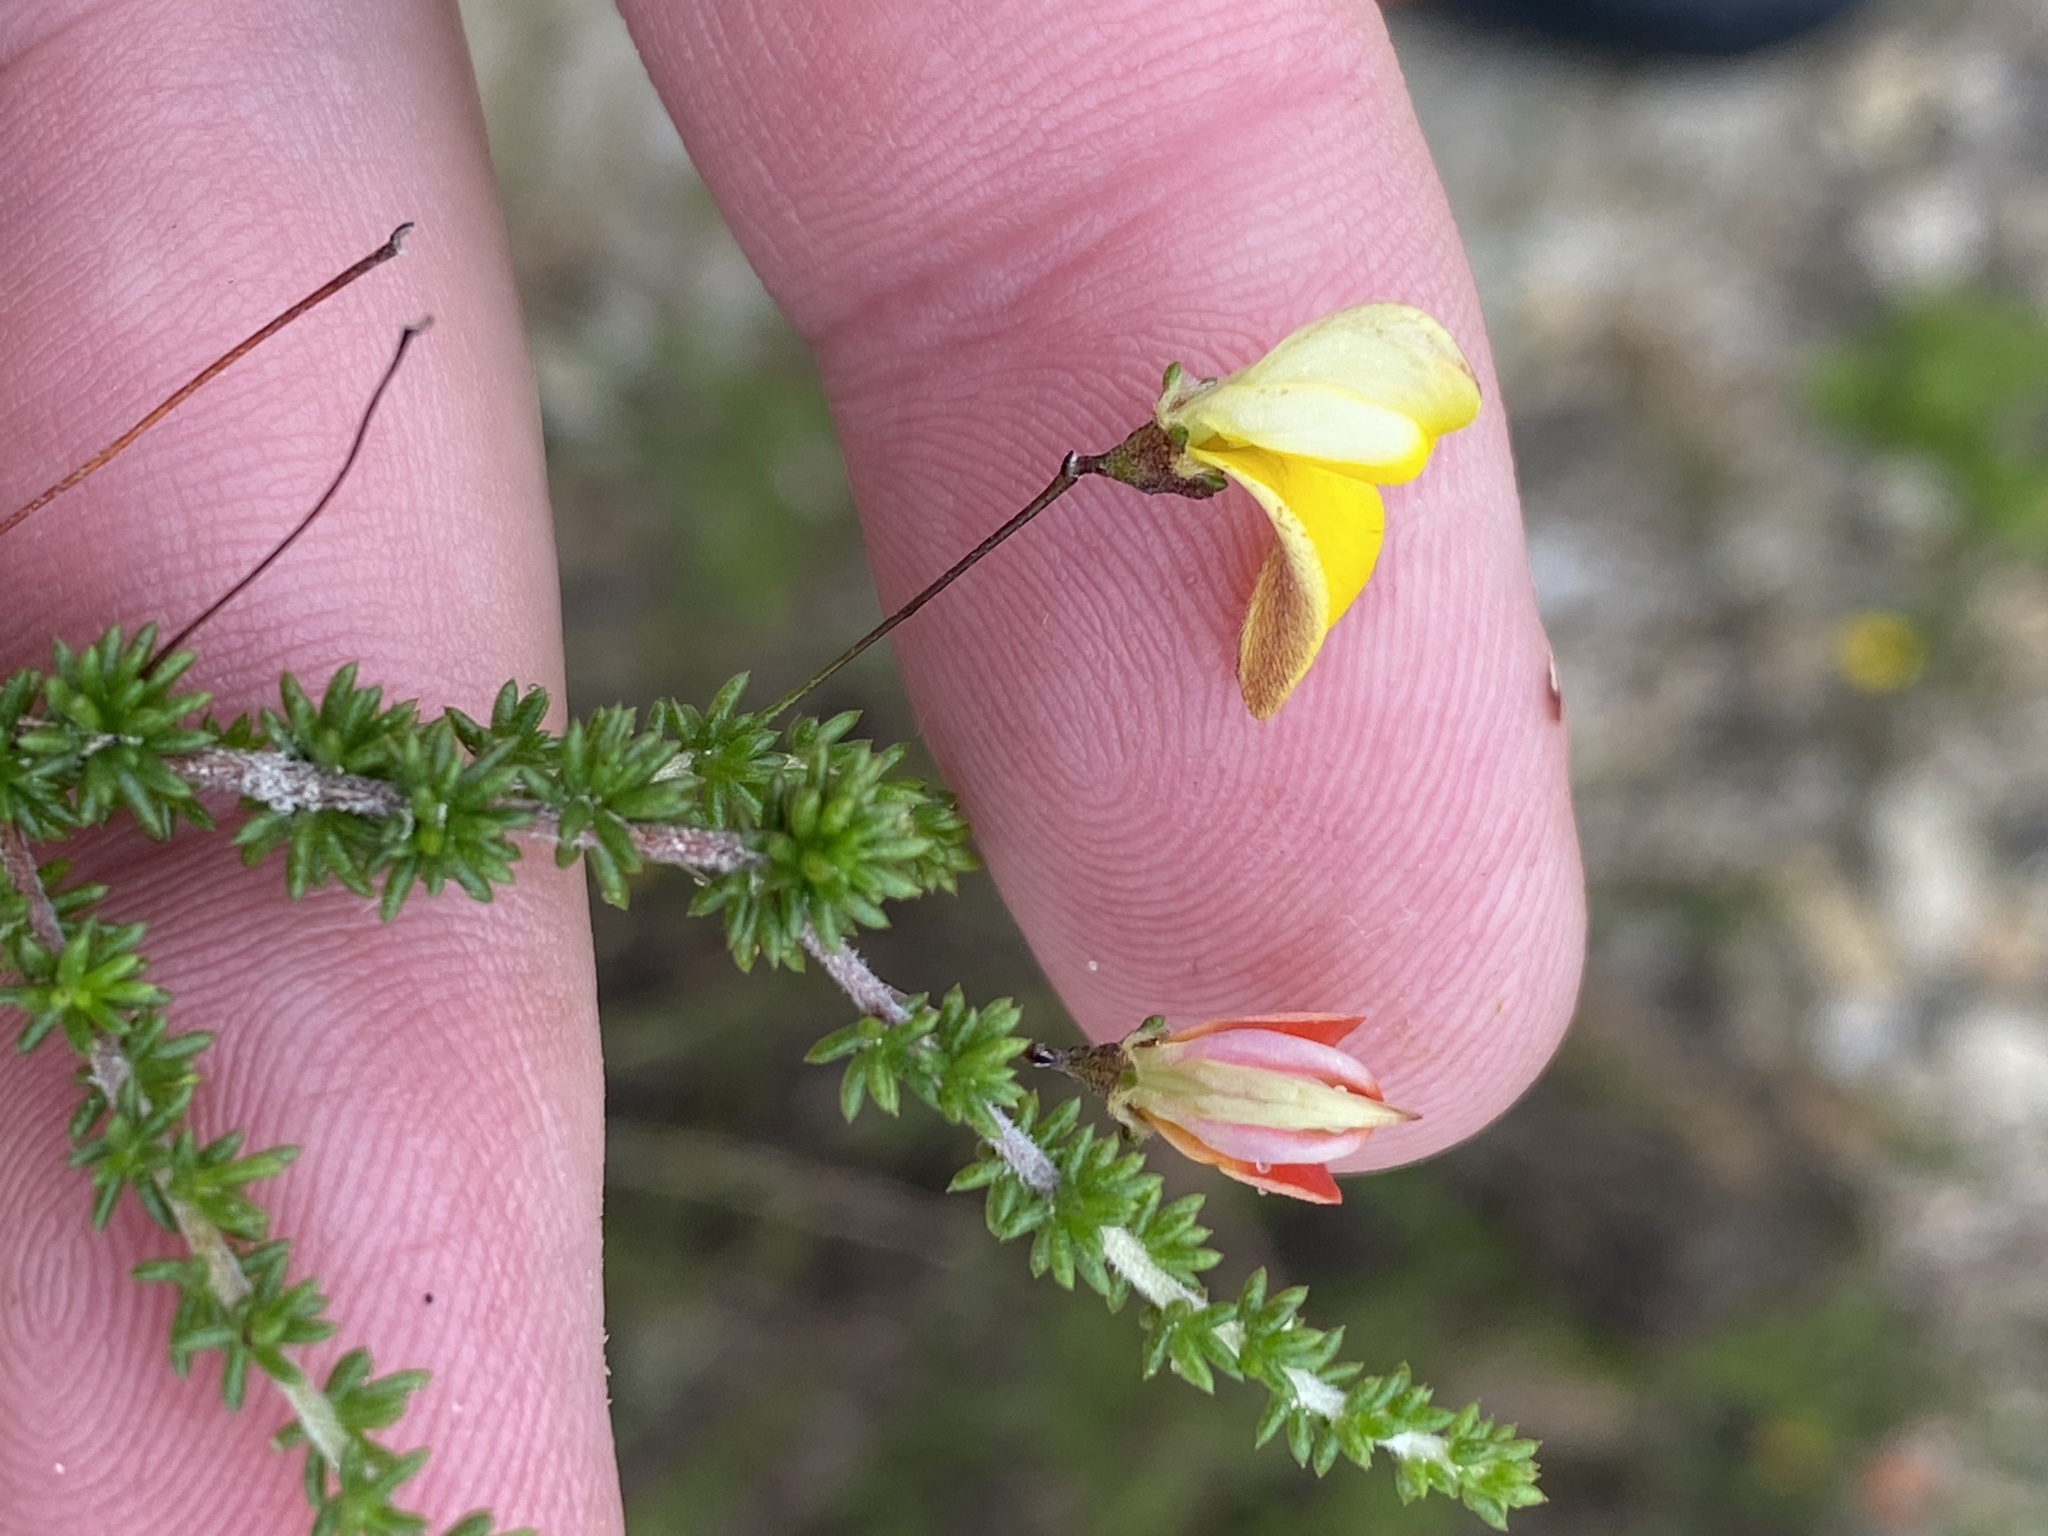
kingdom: Plantae
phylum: Tracheophyta
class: Magnoliopsida
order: Fabales
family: Fabaceae
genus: Aspalathus
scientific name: Aspalathus tenuissima
